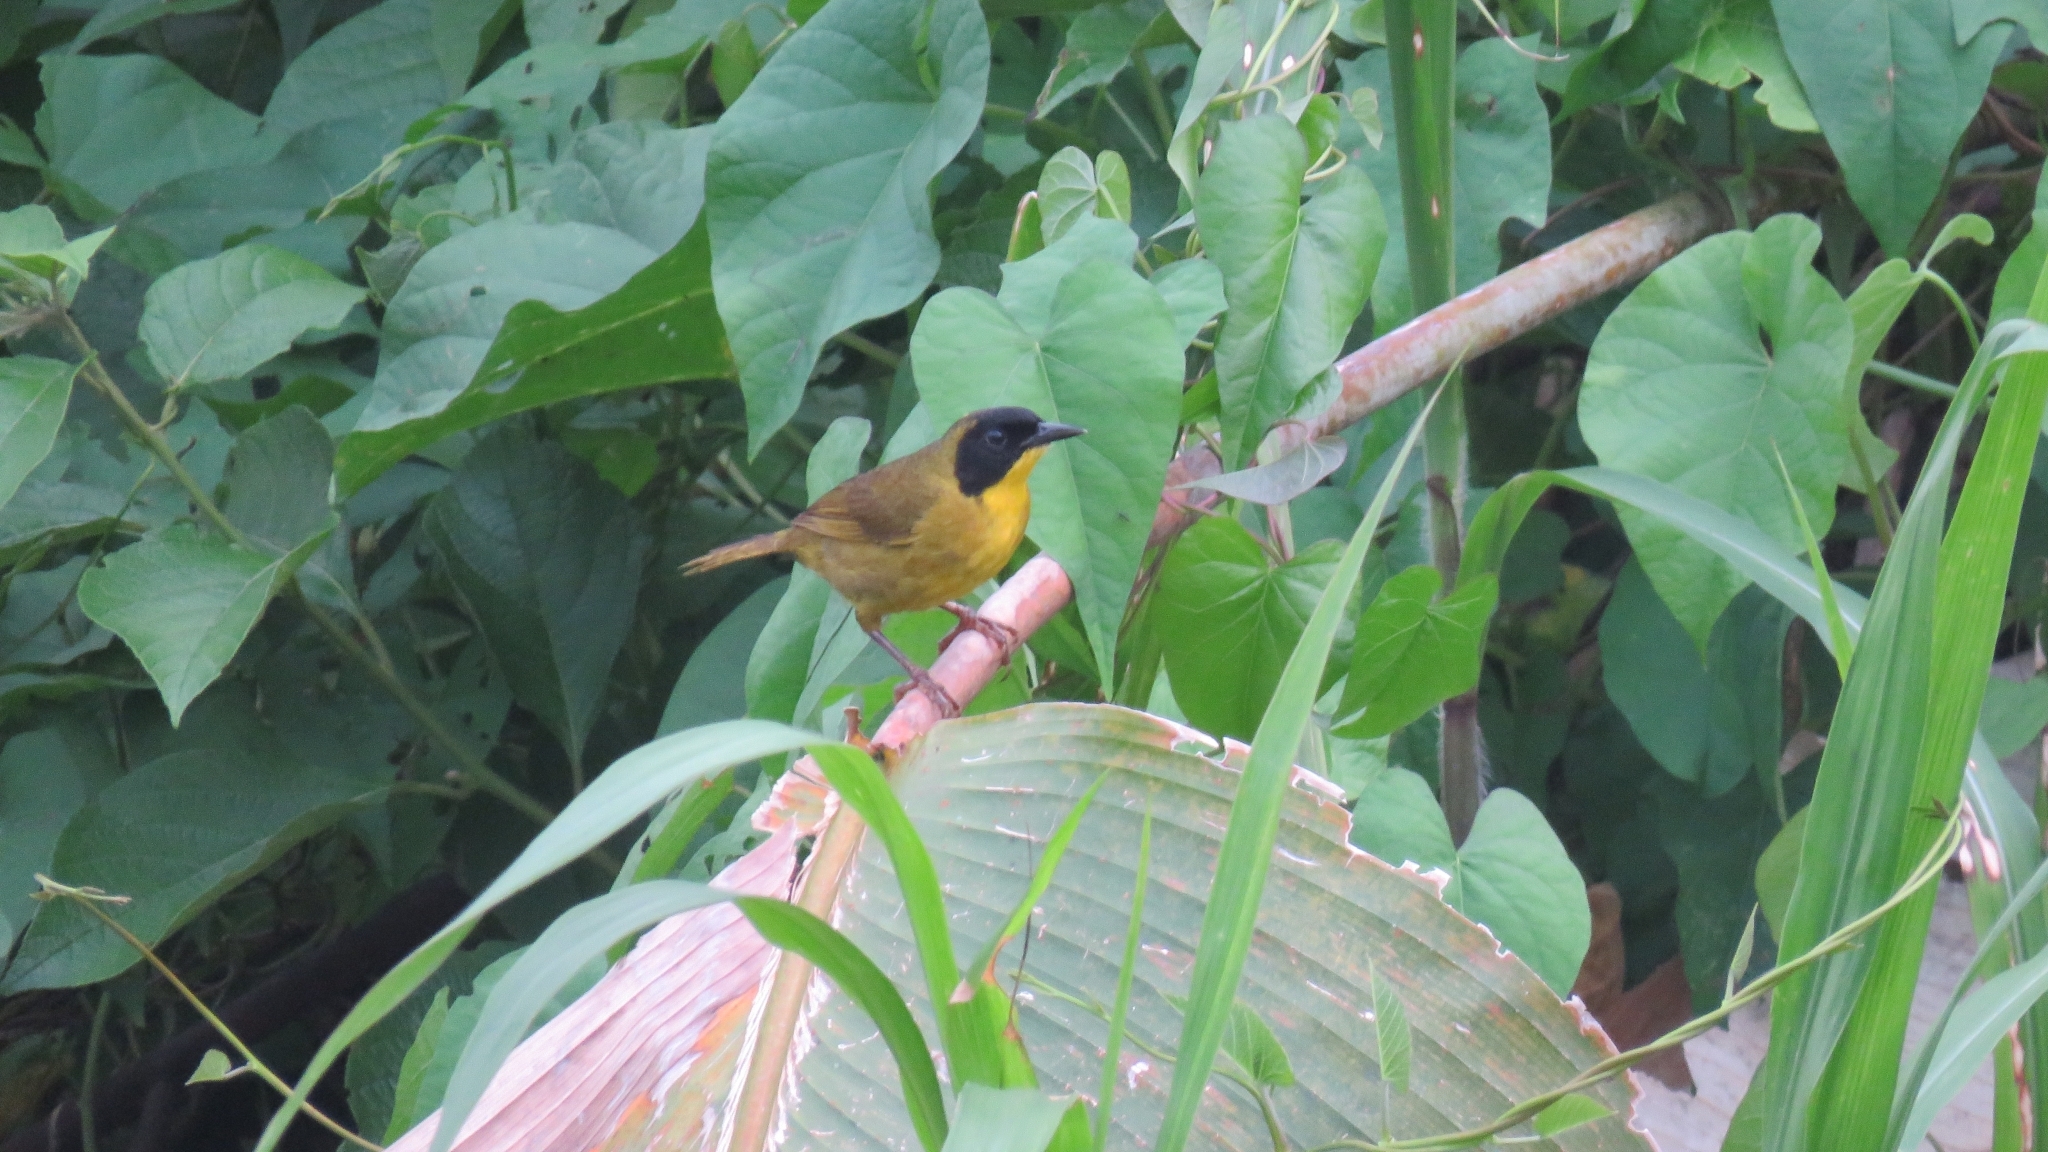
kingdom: Animalia
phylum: Chordata
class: Aves
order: Passeriformes
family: Parulidae
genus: Geothlypis
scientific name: Geothlypis semiflava
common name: Olive-crowned yellowthroat
